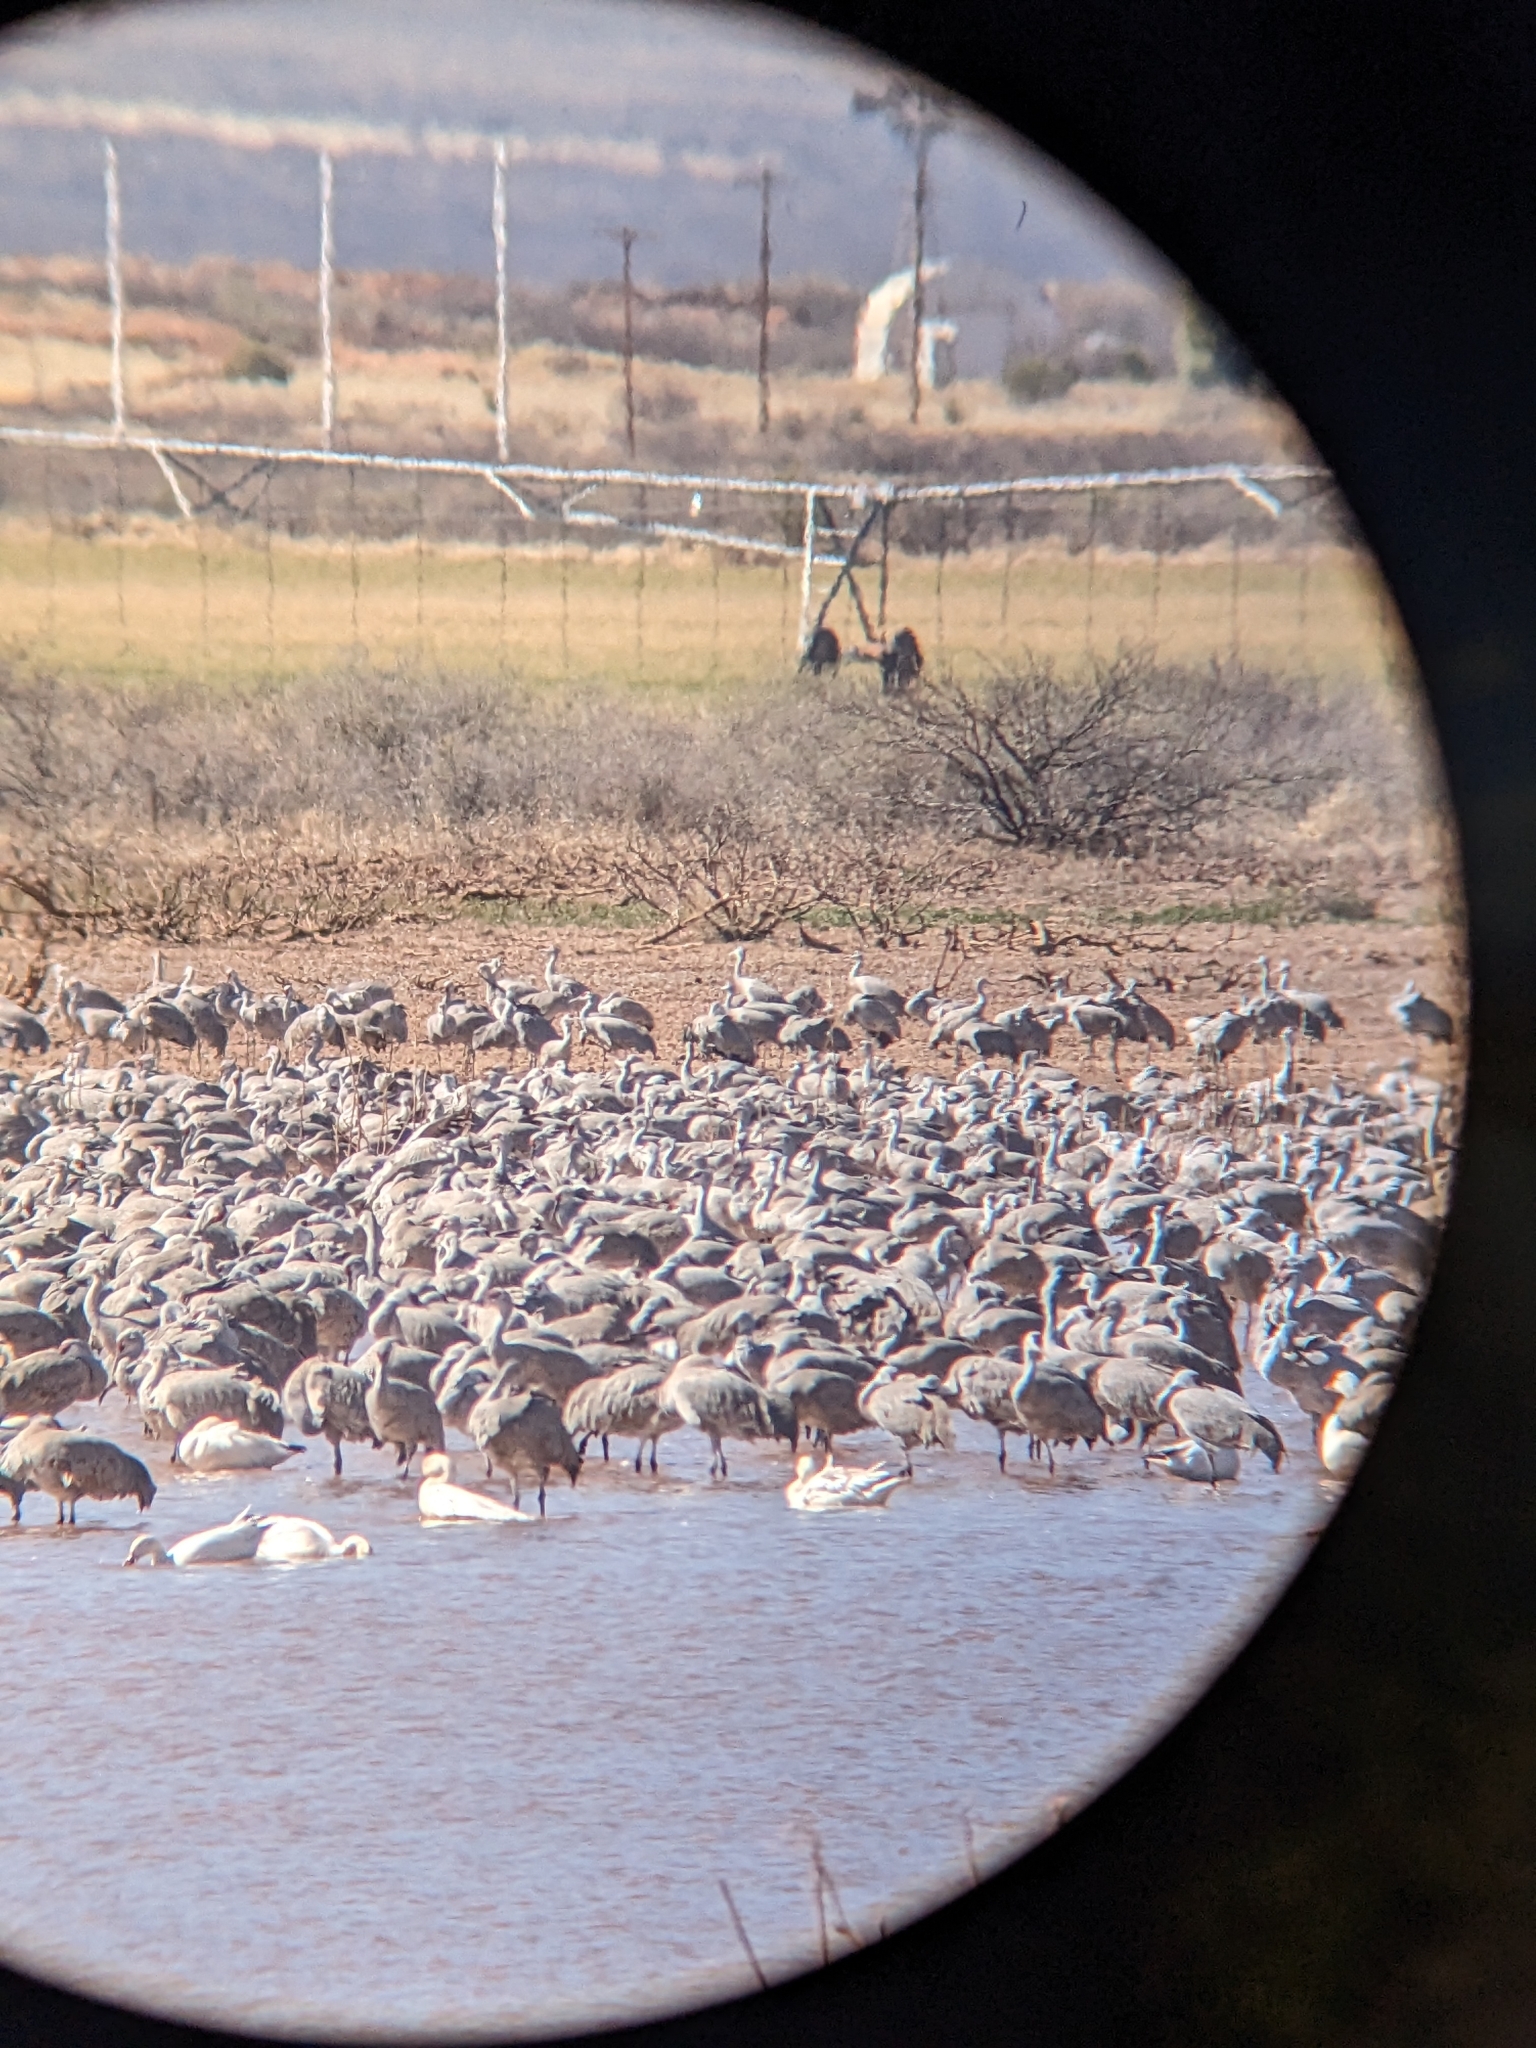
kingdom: Animalia
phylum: Chordata
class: Aves
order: Gruiformes
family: Gruidae
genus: Grus
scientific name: Grus canadensis
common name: Sandhill crane
